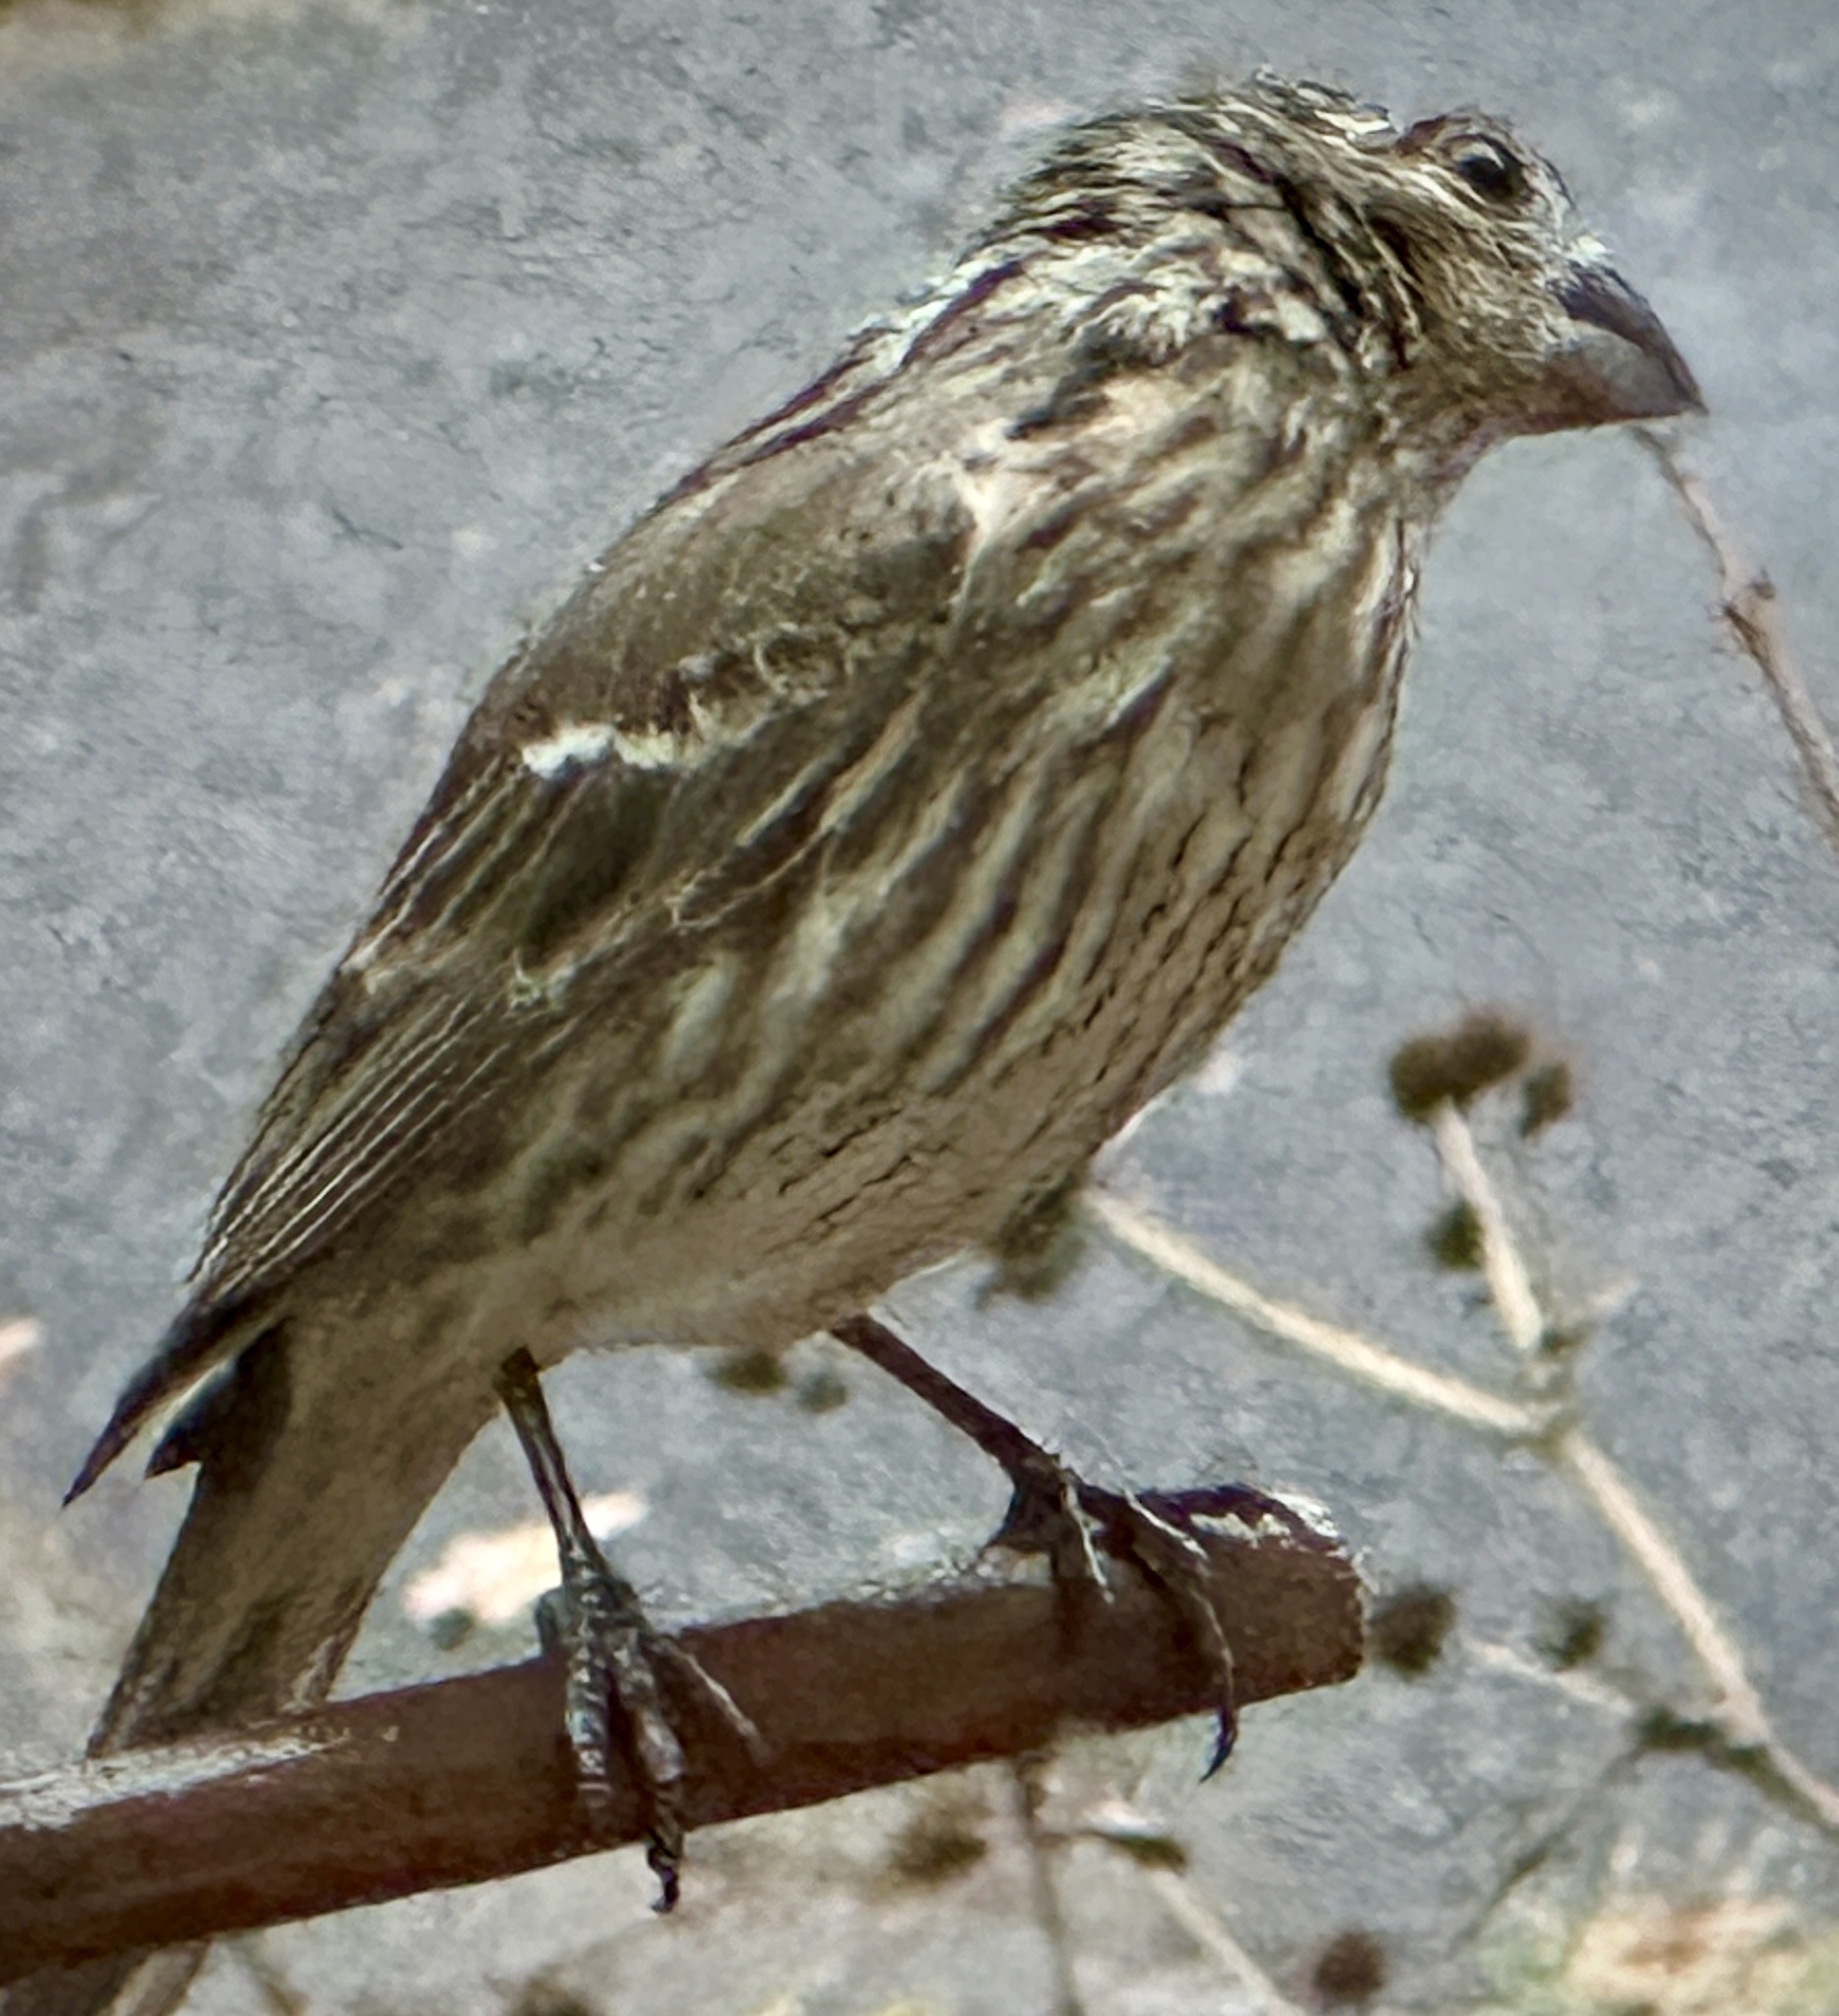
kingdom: Animalia
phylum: Chordata
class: Aves
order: Passeriformes
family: Fringillidae
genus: Haemorhous
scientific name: Haemorhous mexicanus
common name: House finch
